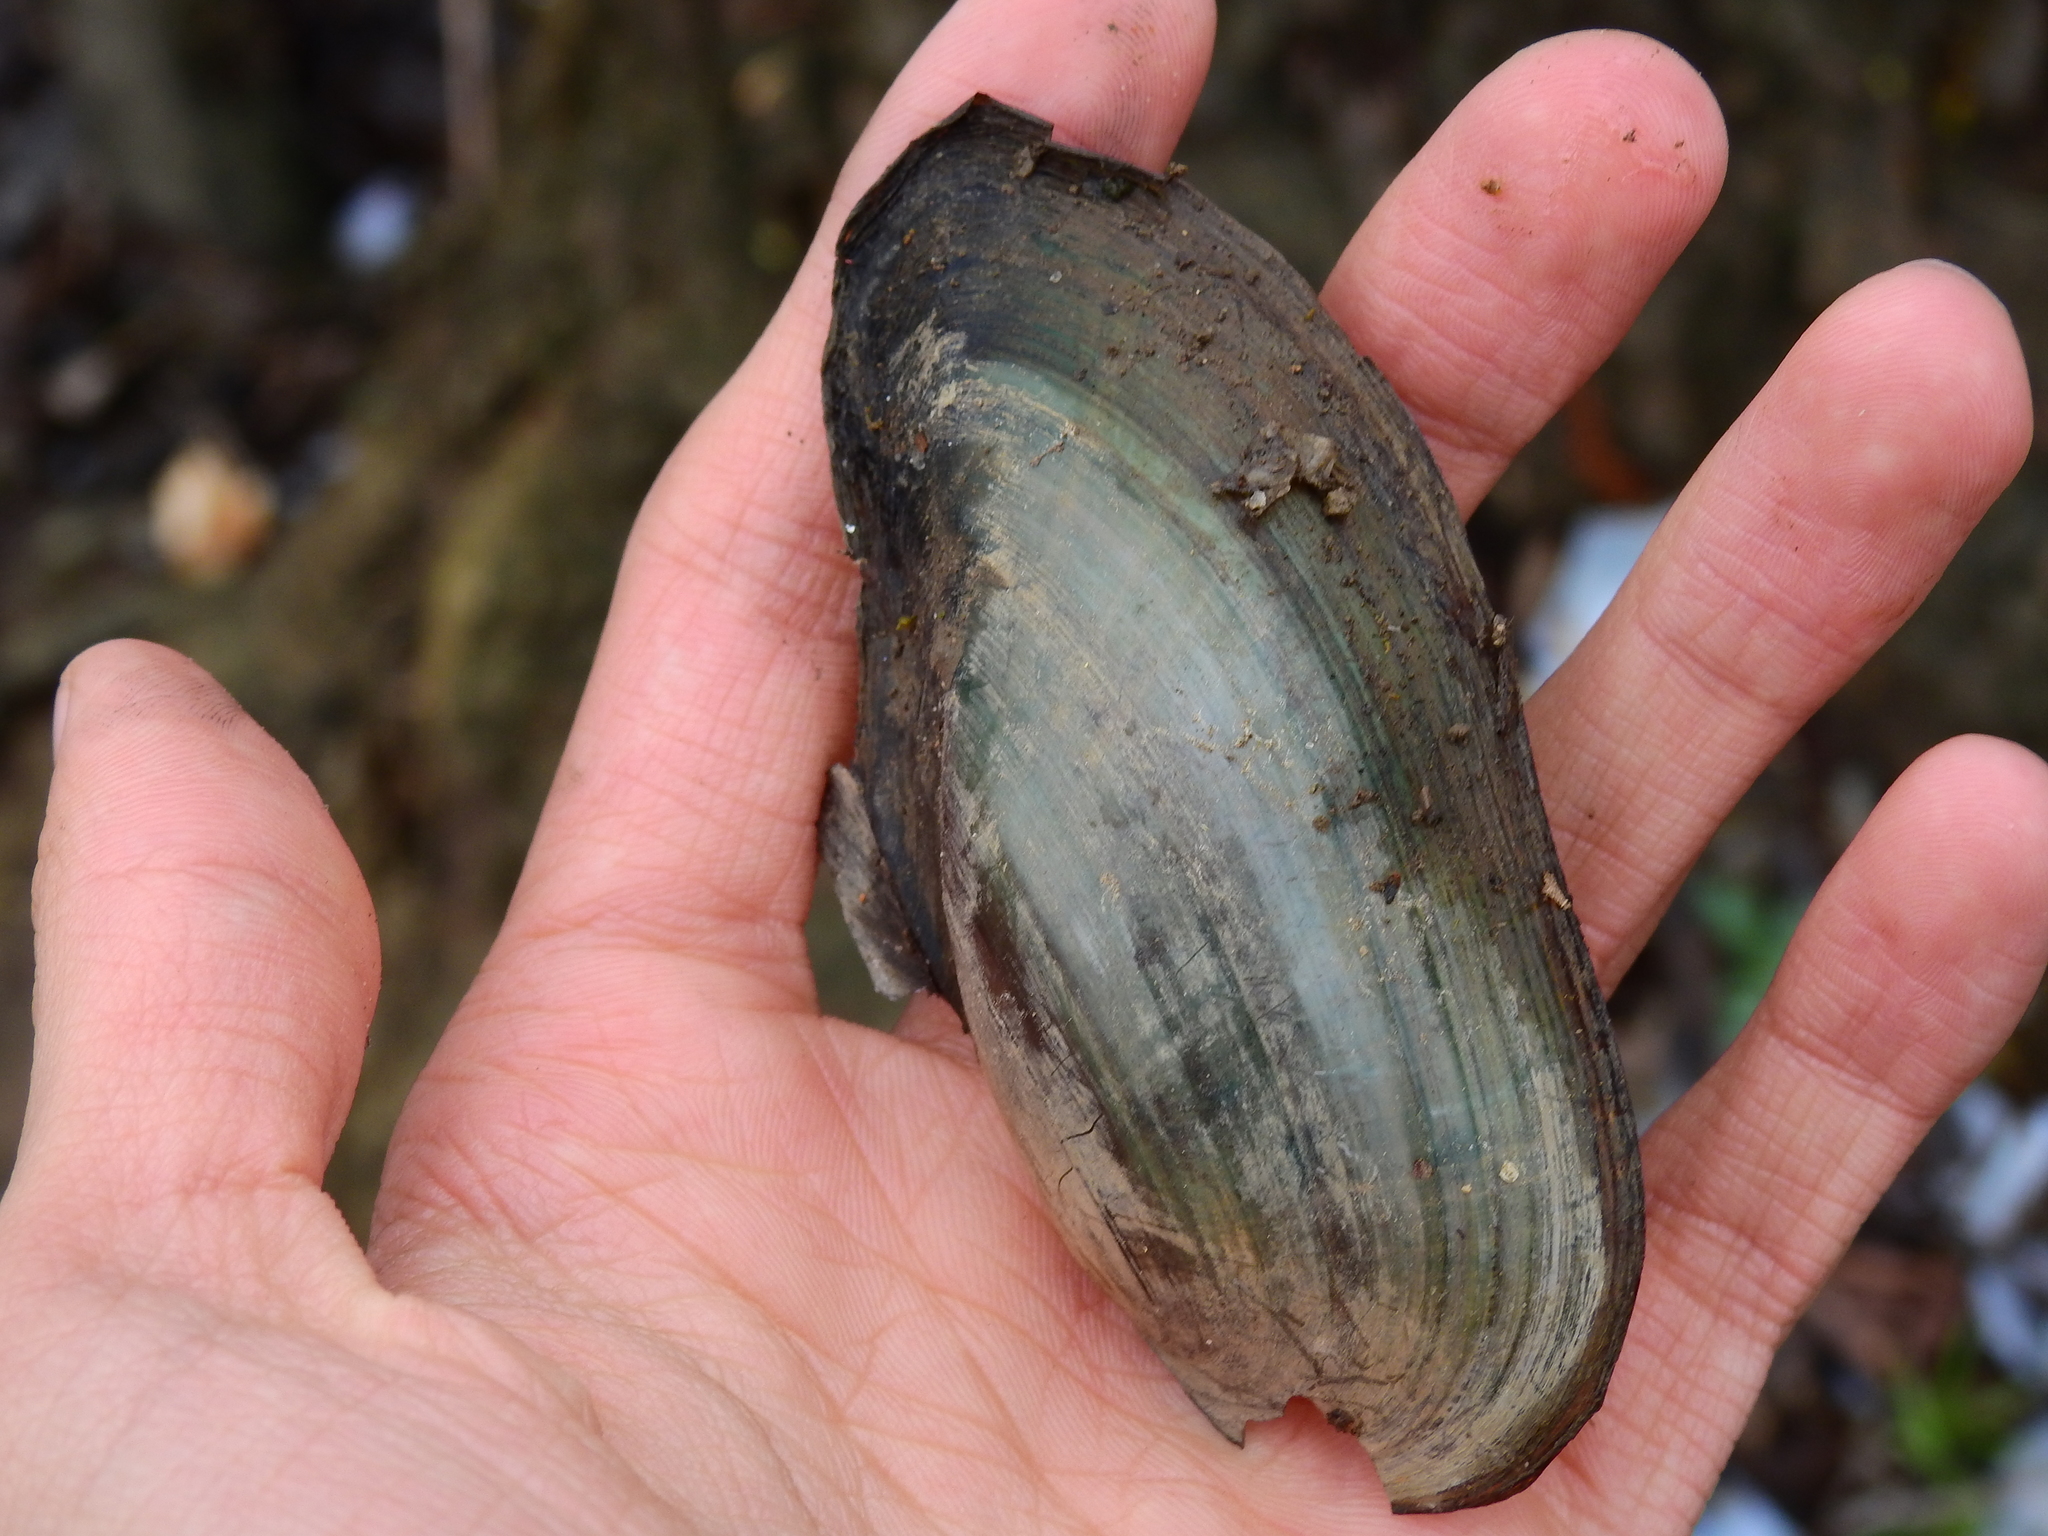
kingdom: Animalia
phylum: Mollusca
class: Bivalvia
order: Unionida
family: Unionidae
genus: Utterbackia
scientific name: Utterbackia imbecillis
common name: Paper pondshell
